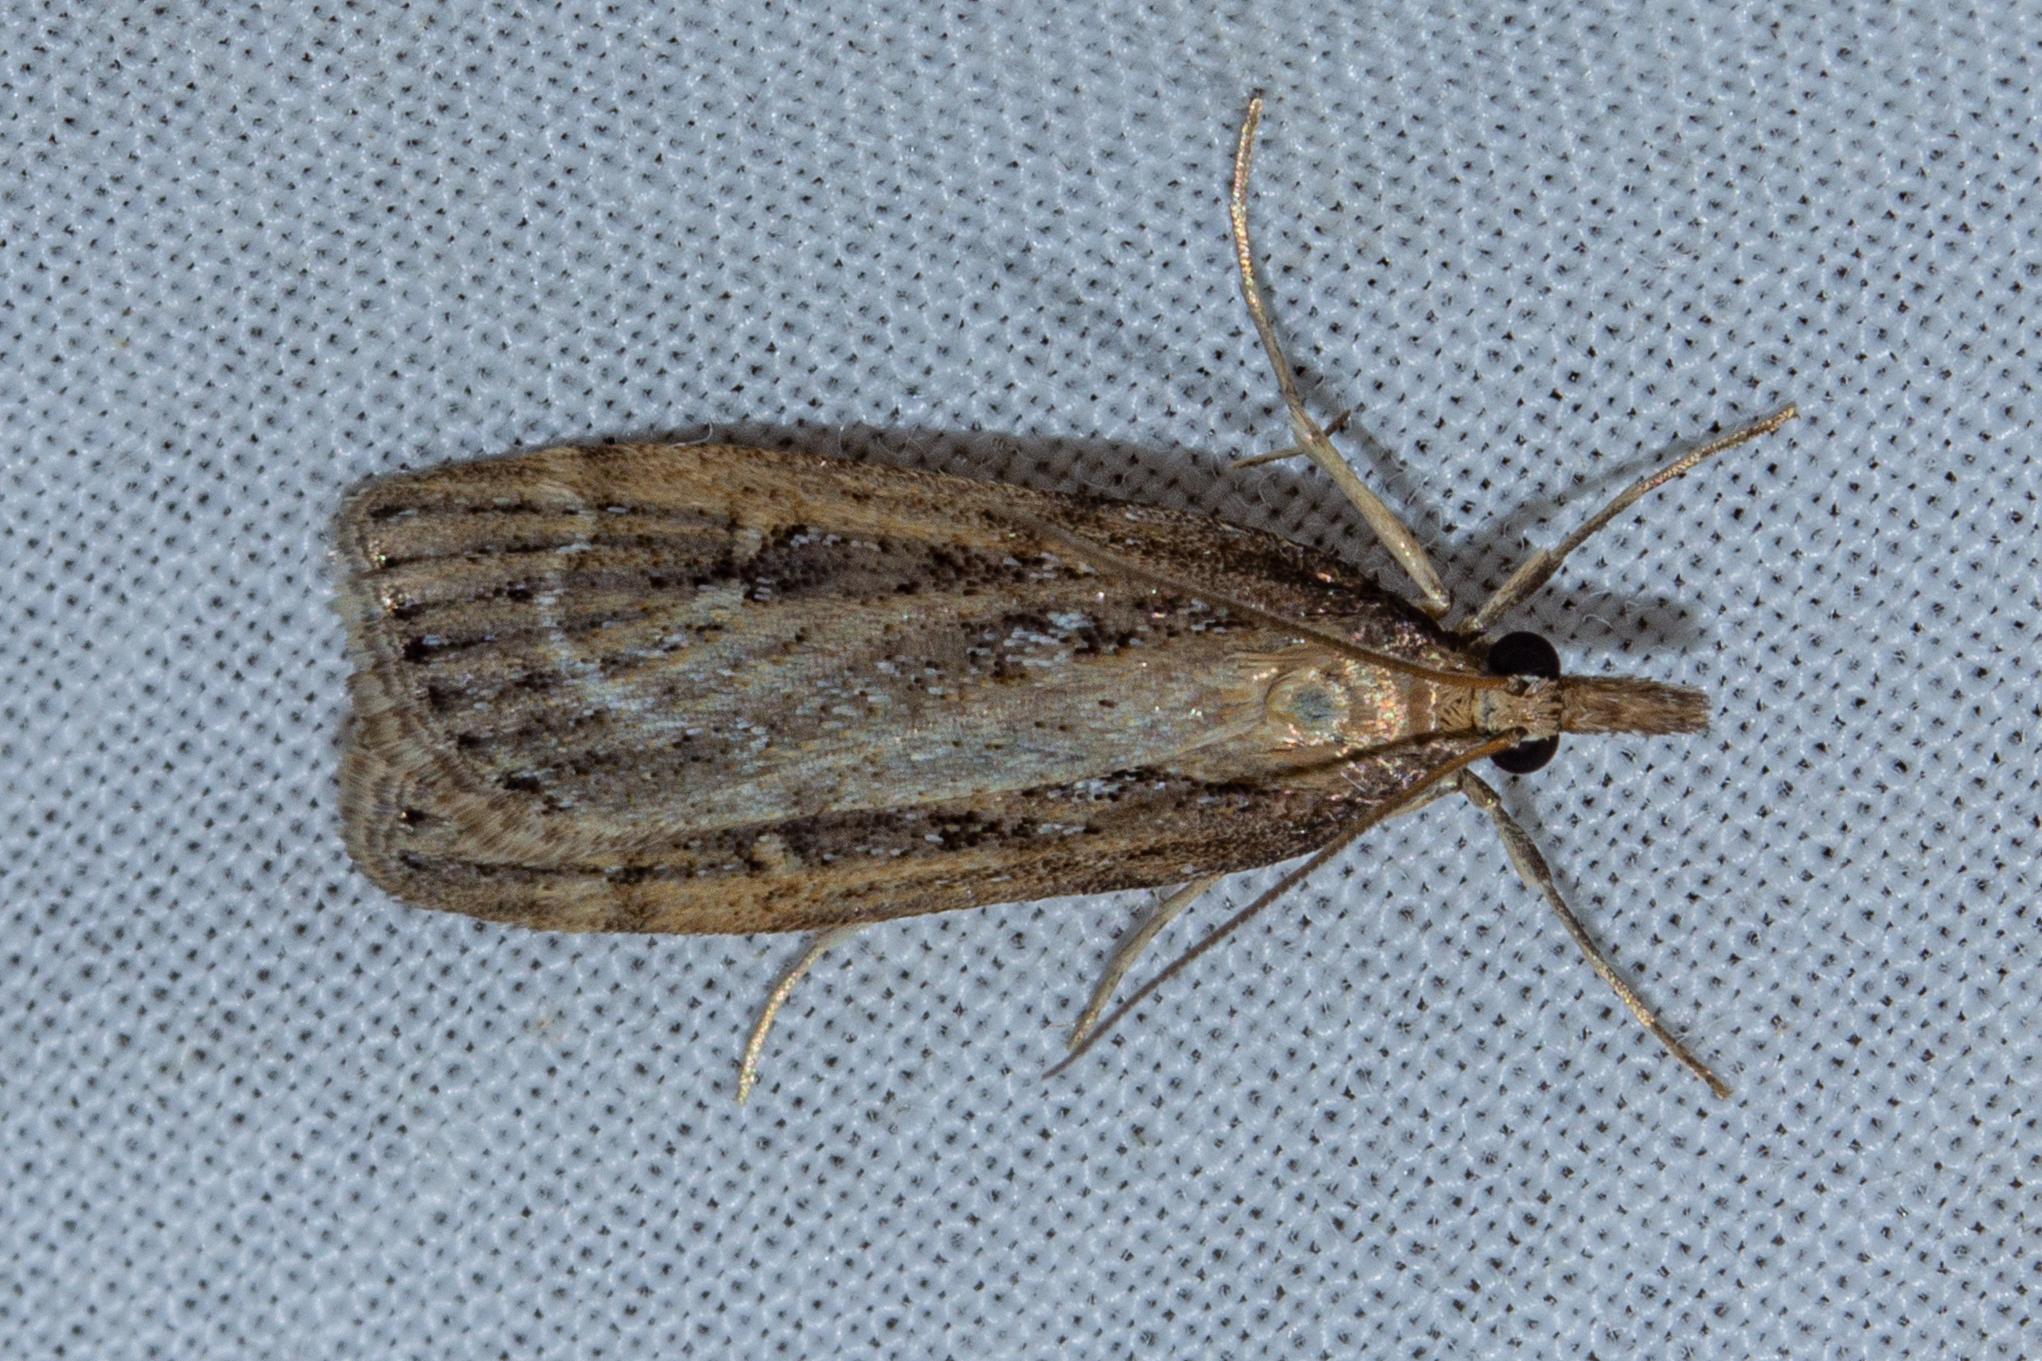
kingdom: Animalia
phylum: Arthropoda
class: Insecta
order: Lepidoptera
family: Crambidae
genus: Eudonia
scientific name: Eudonia octophora
